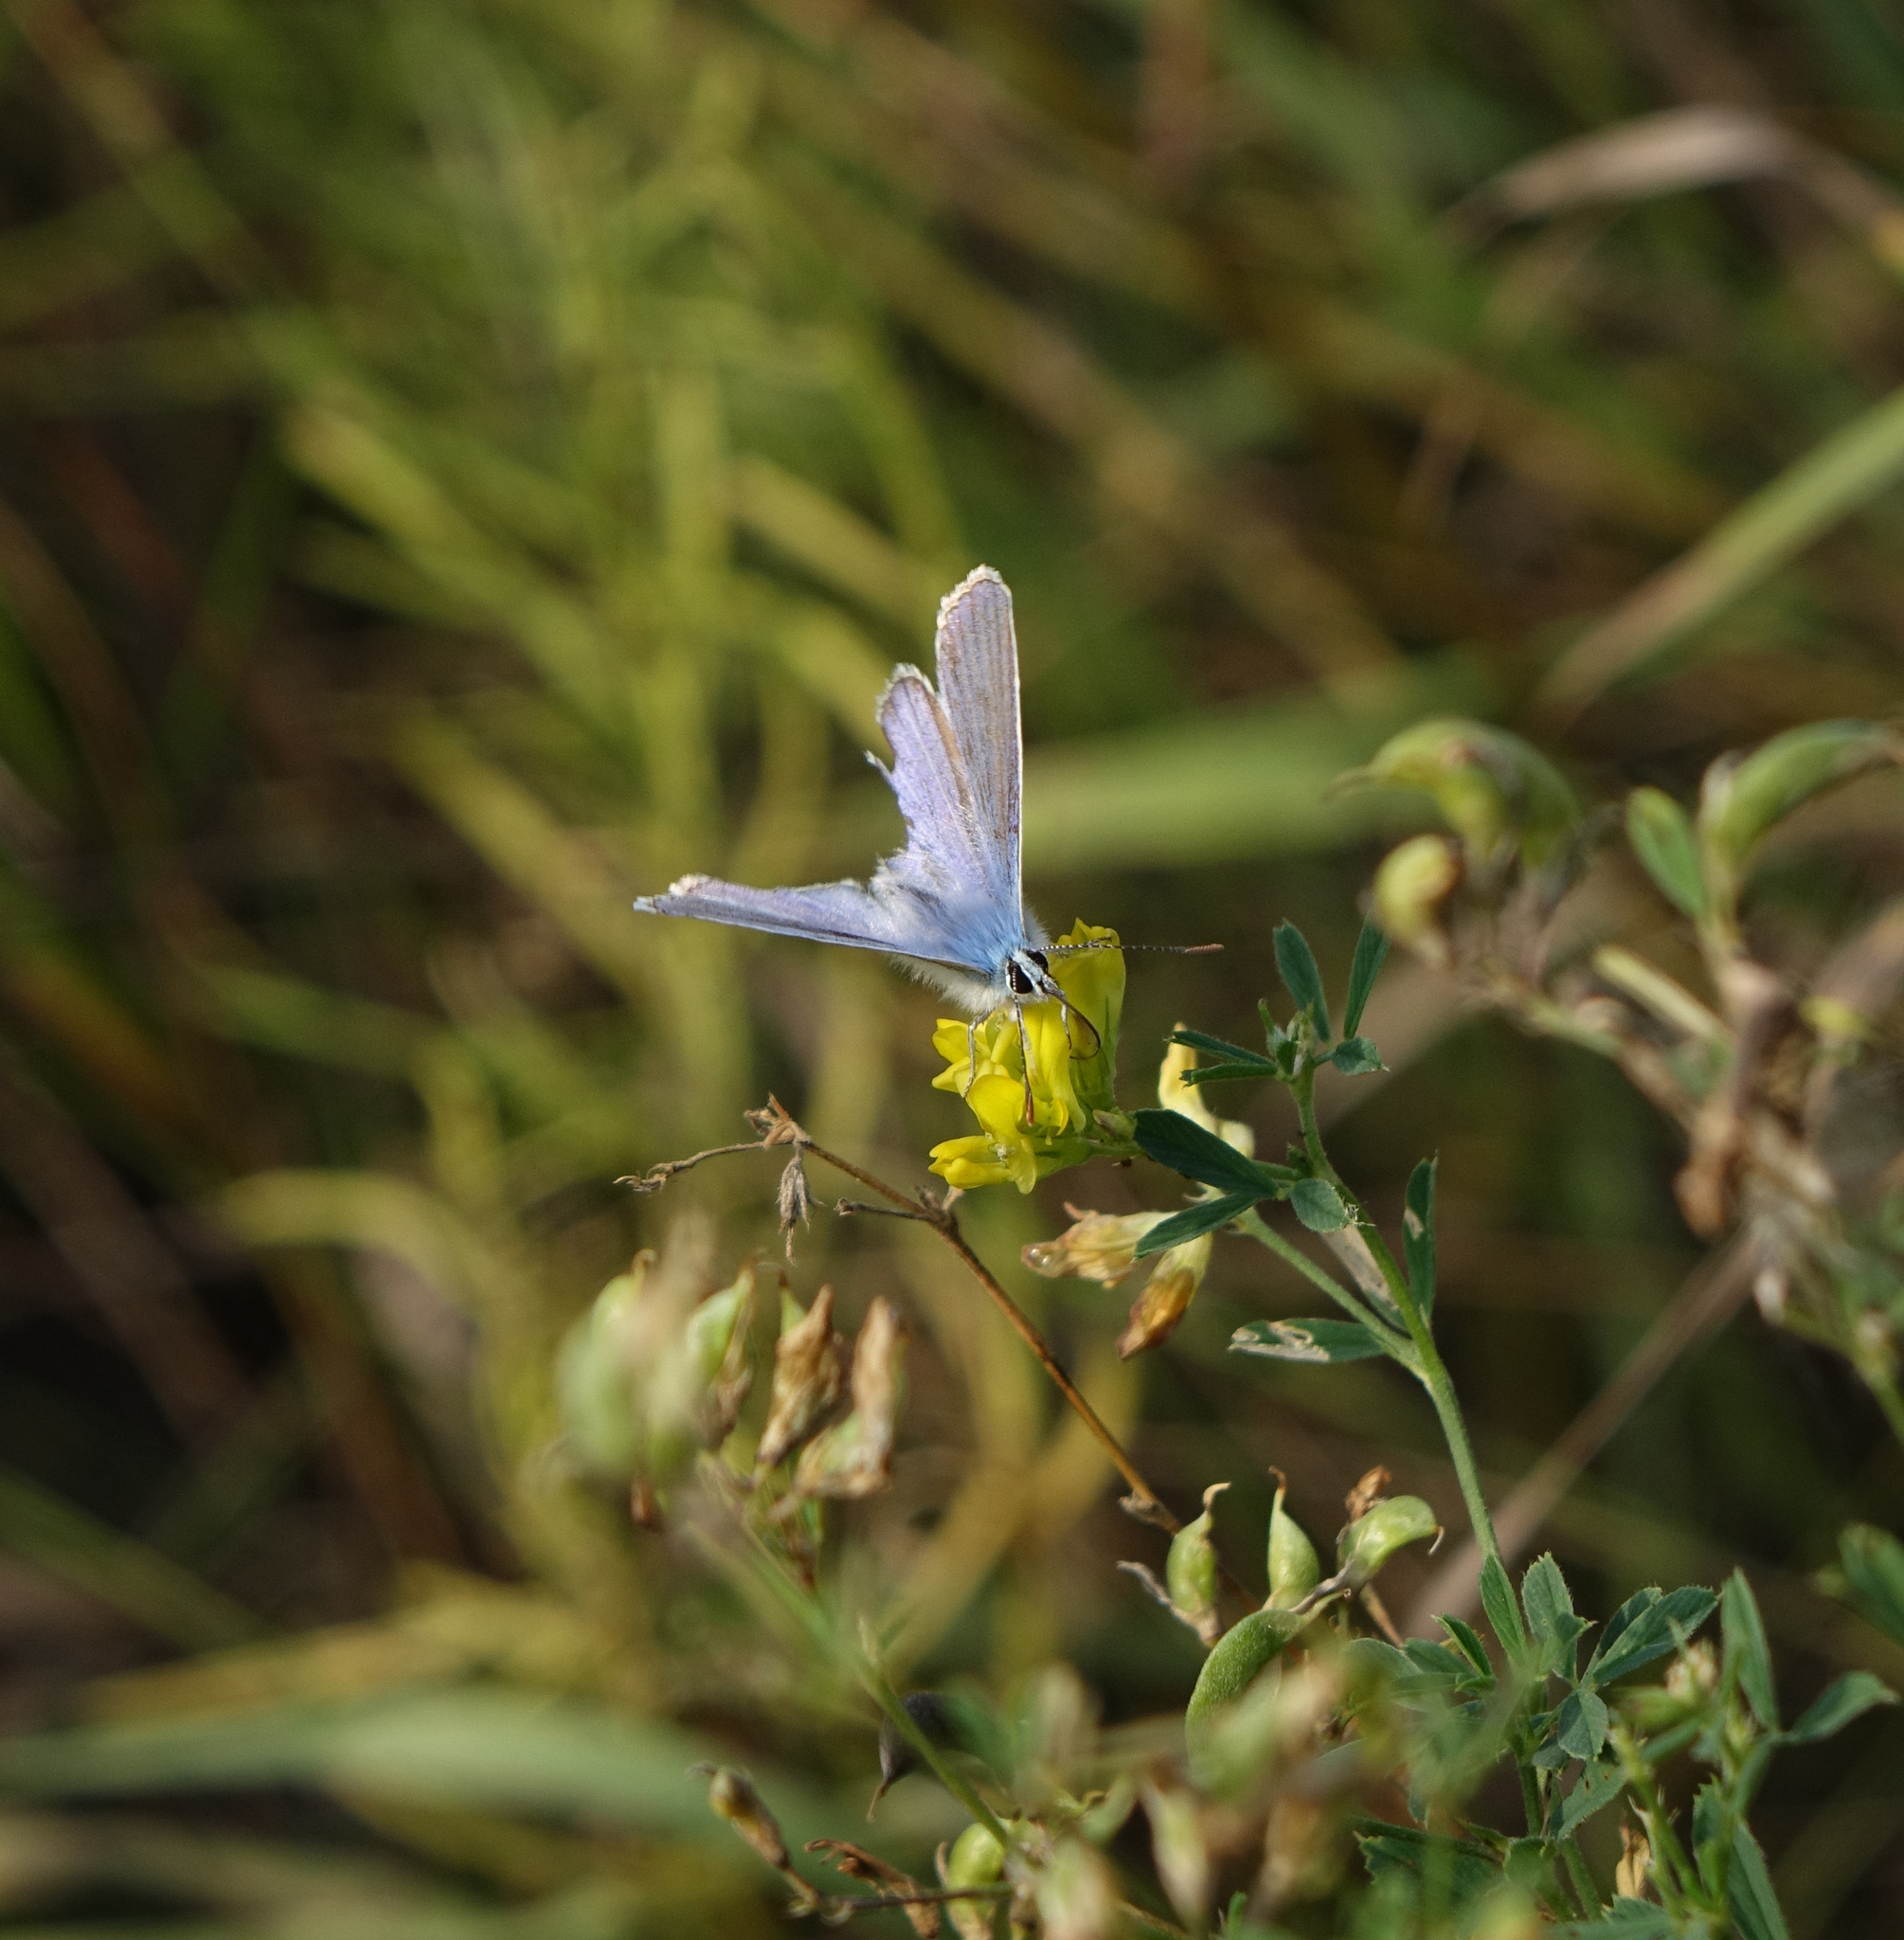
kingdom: Animalia
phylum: Arthropoda
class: Insecta
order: Lepidoptera
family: Lycaenidae
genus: Polyommatus
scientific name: Polyommatus icarus
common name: Common blue
